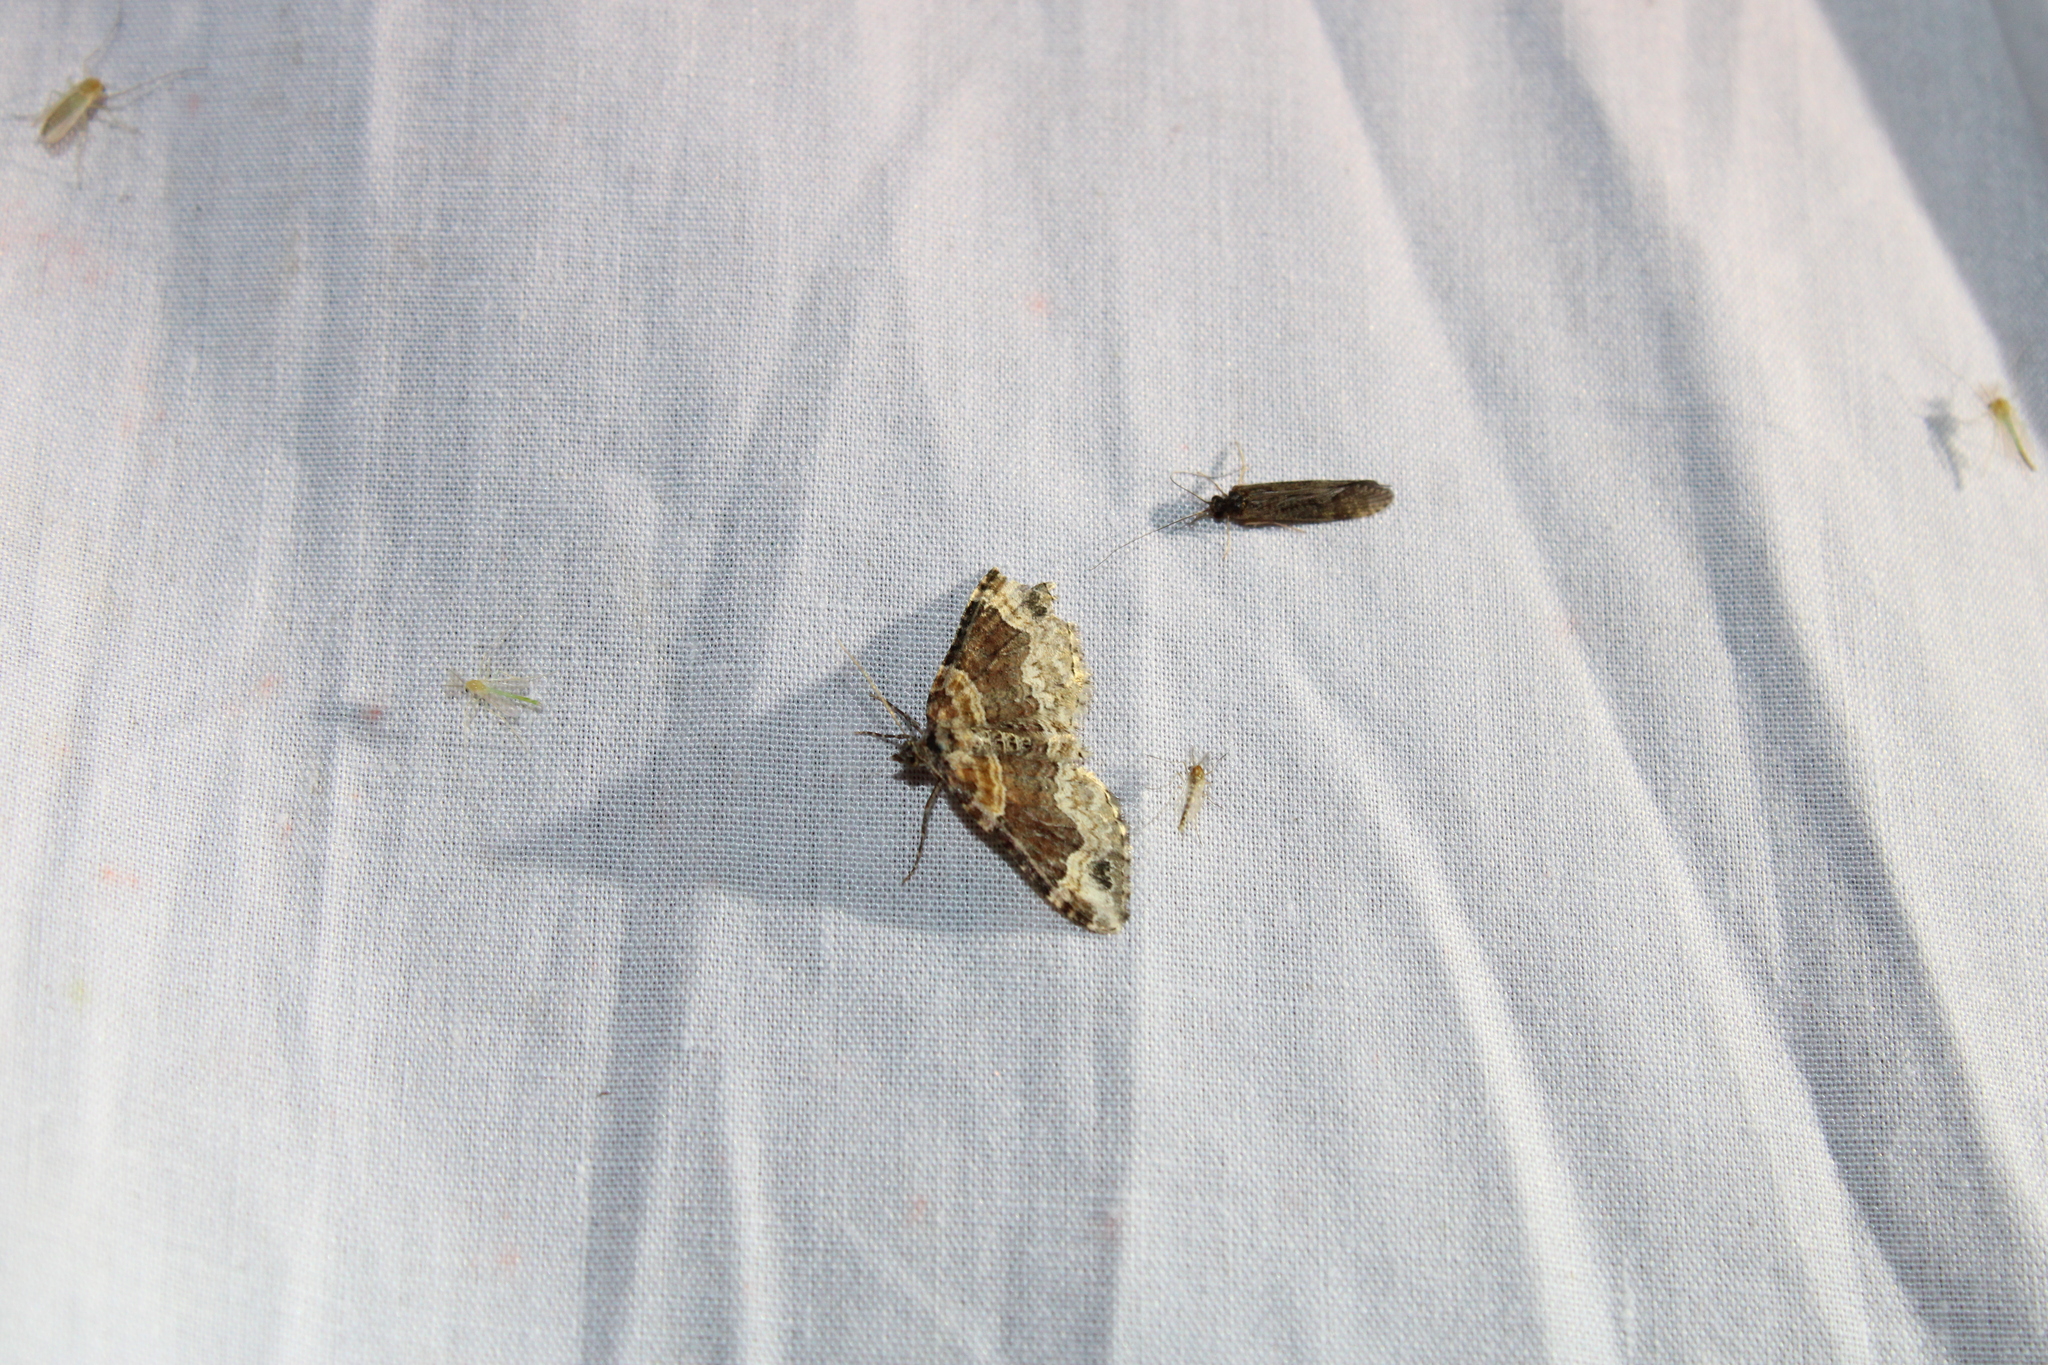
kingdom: Animalia
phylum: Arthropoda
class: Insecta
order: Lepidoptera
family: Geometridae
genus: Xanthorhoe
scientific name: Xanthorhoe ferrugata
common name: Dark-barred twin-spot carpet
